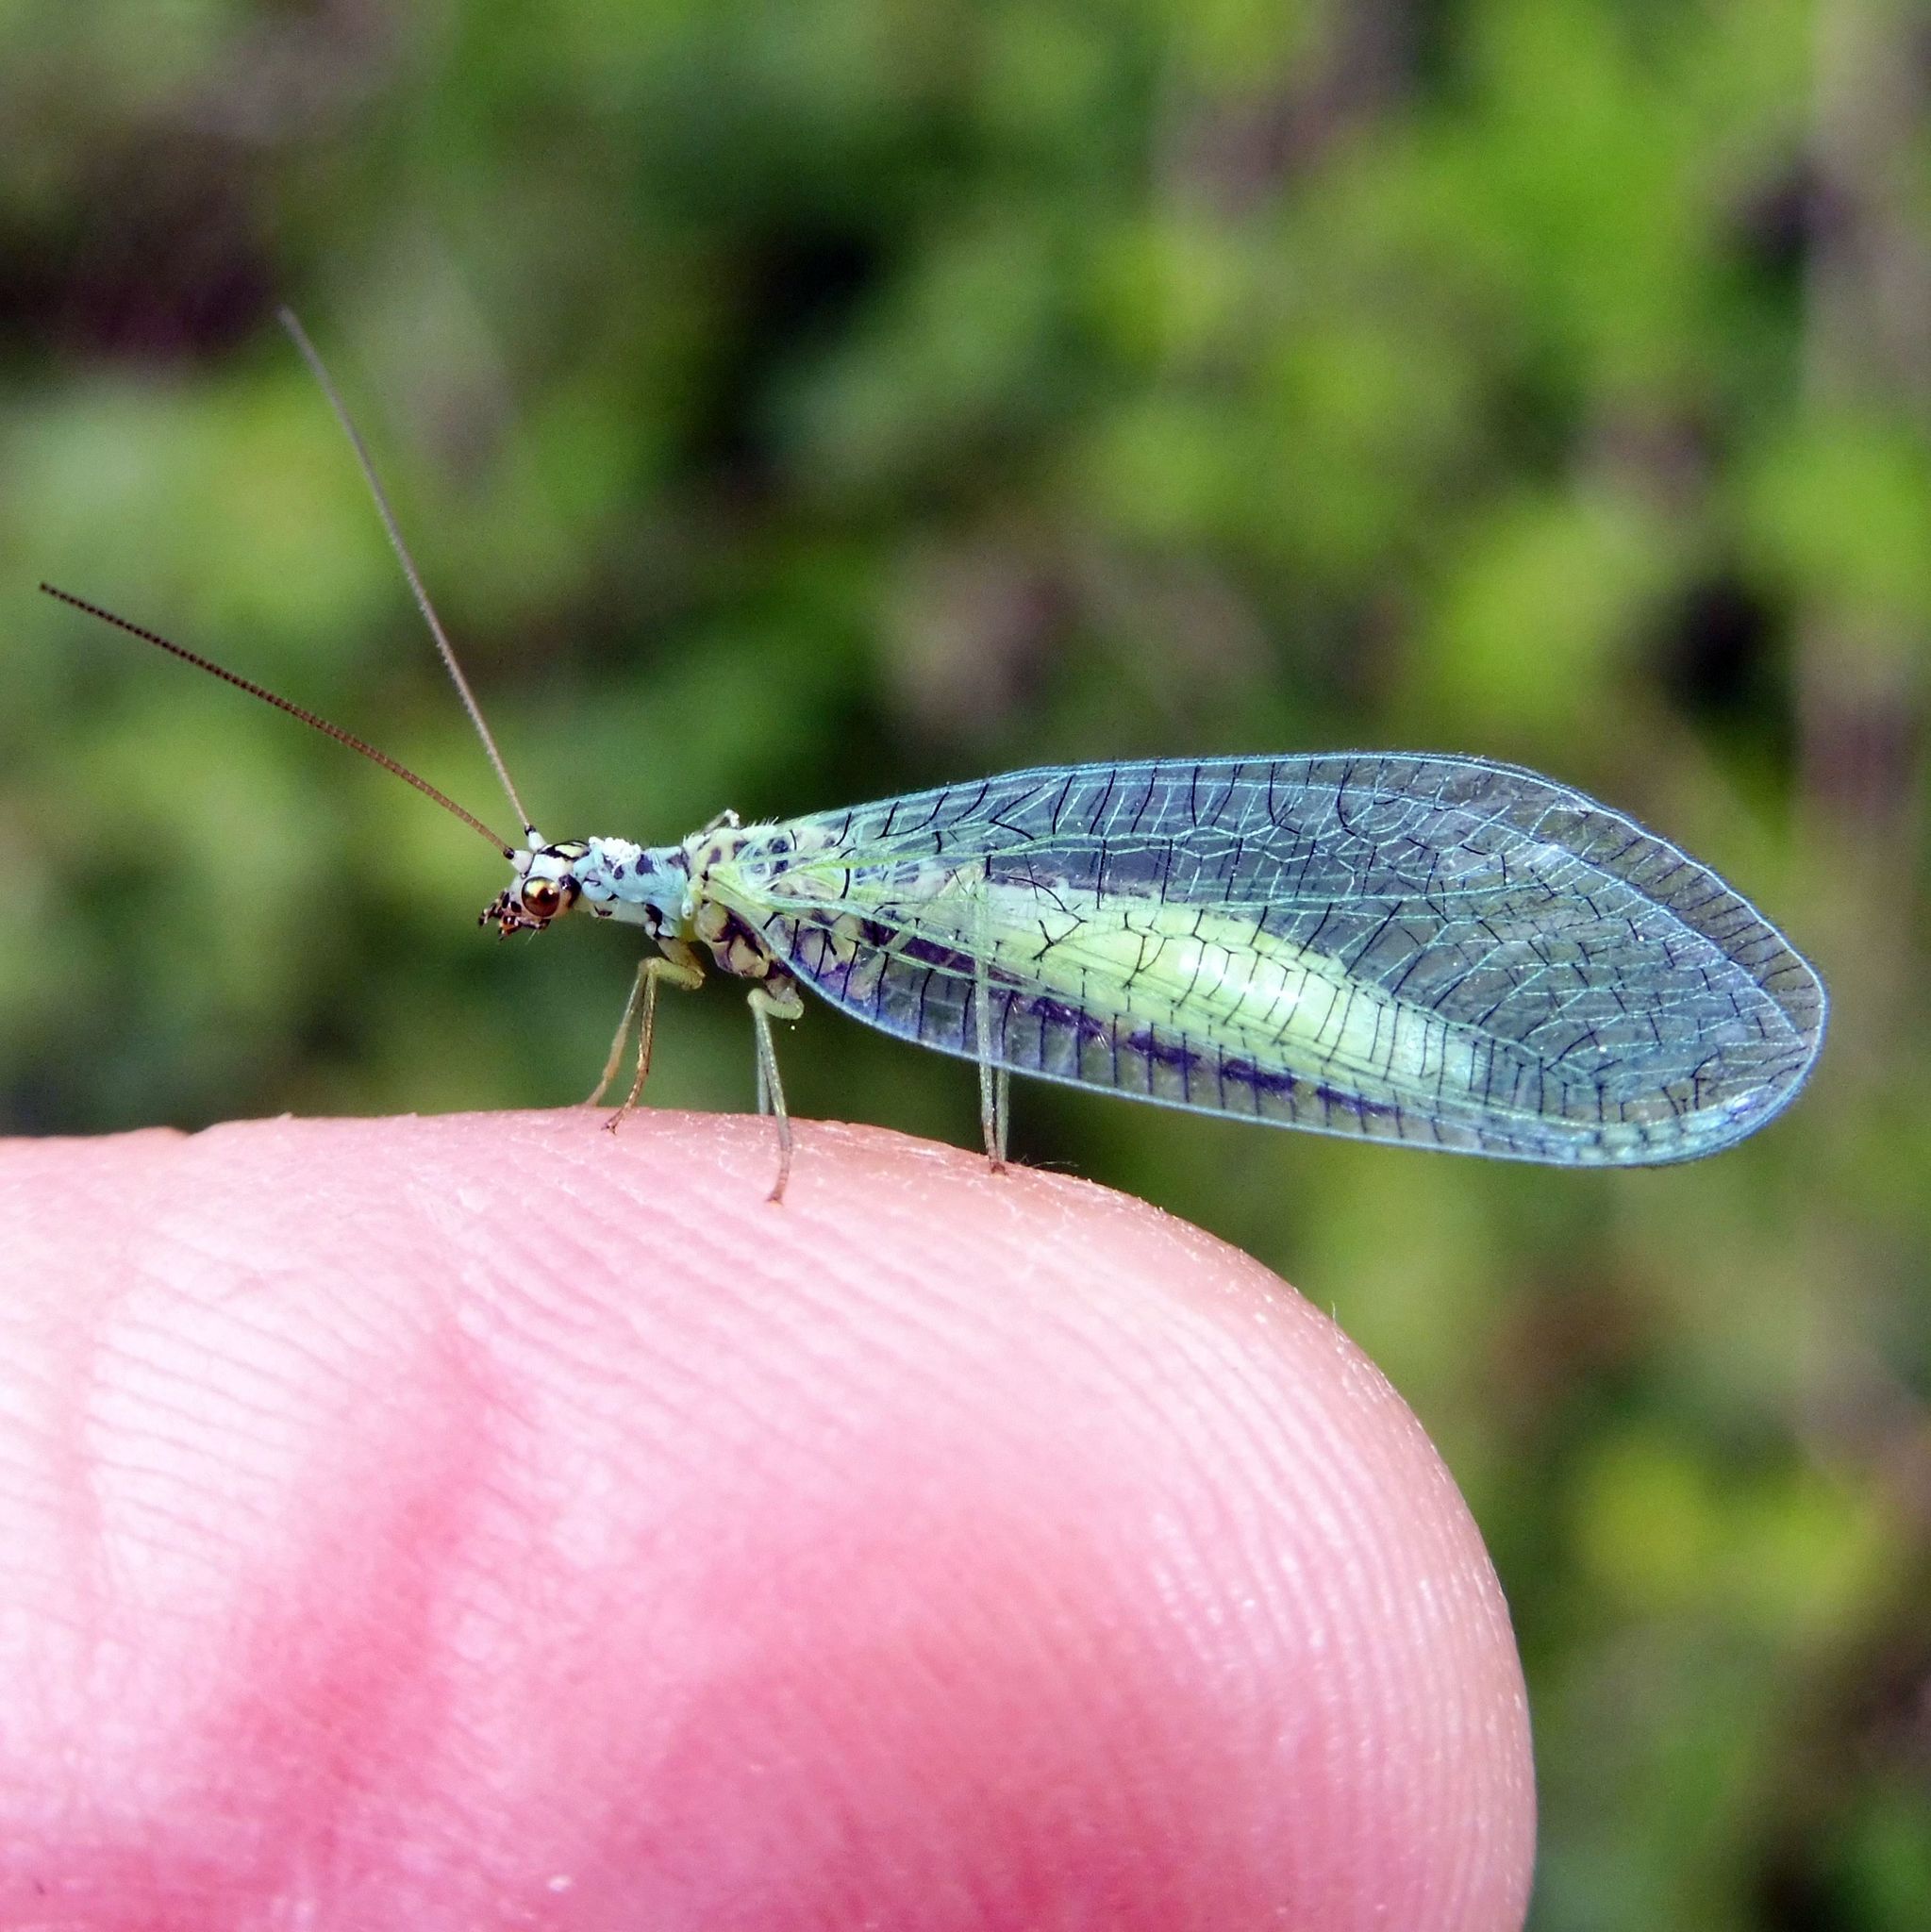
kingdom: Animalia
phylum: Arthropoda
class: Insecta
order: Neuroptera
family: Chrysopidae
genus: Chrysopa
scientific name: Chrysopa perla
